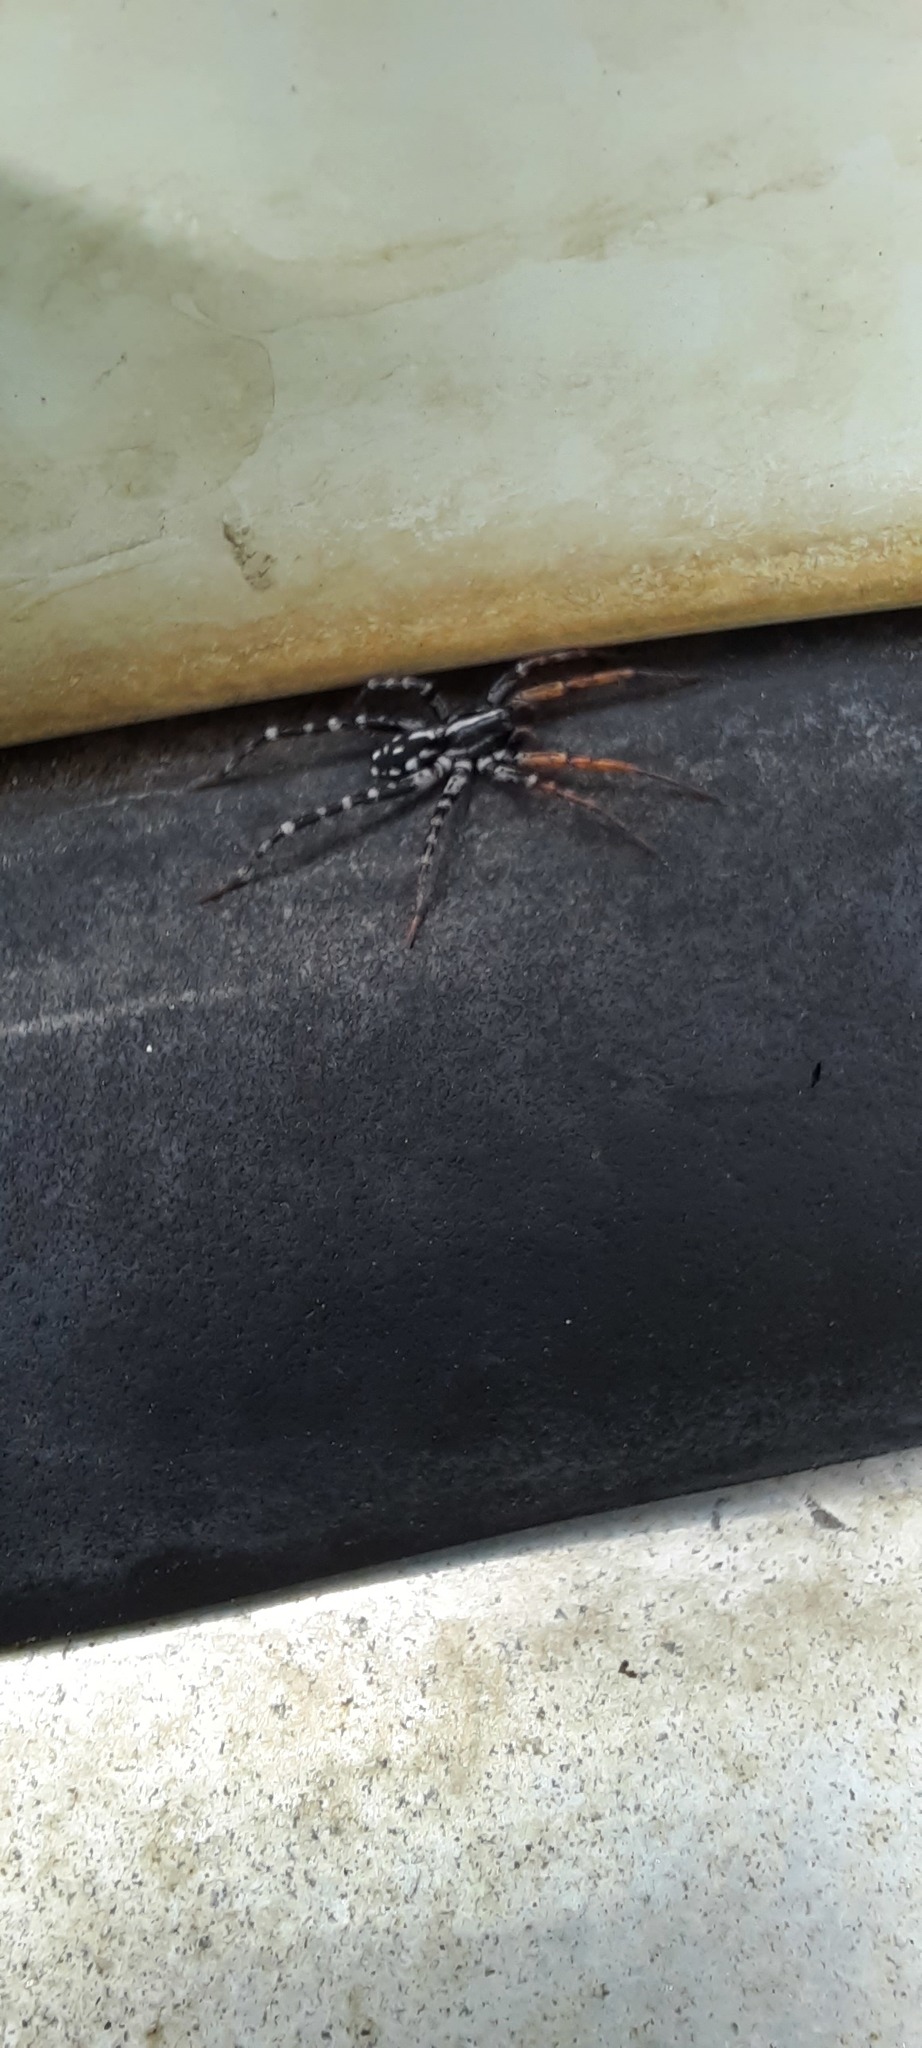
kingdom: Animalia
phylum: Arthropoda
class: Arachnida
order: Araneae
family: Corinnidae
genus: Nyssus
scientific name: Nyssus coloripes
